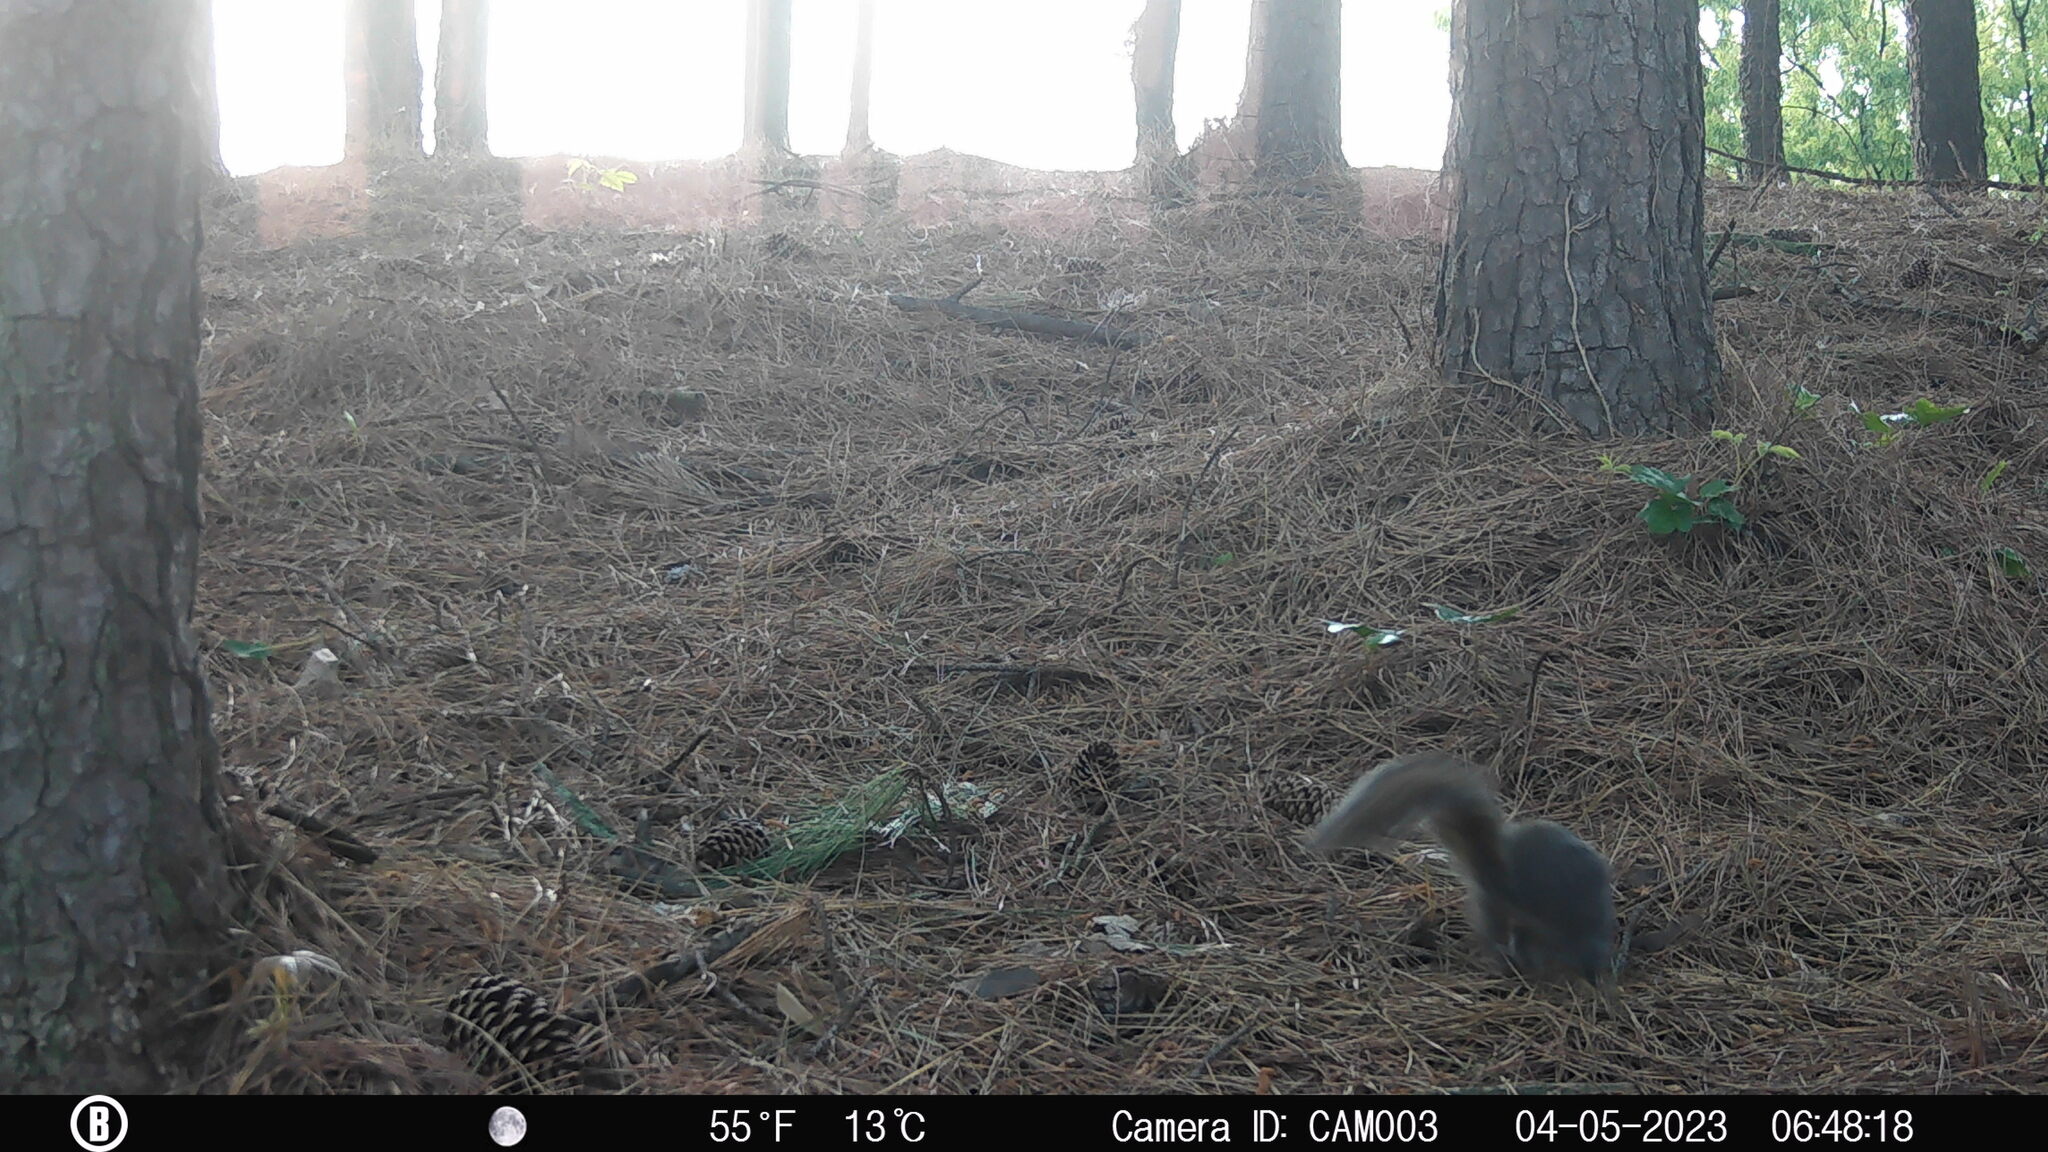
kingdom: Animalia
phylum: Chordata
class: Mammalia
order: Rodentia
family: Sciuridae
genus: Sciurus
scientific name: Sciurus carolinensis
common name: Eastern gray squirrel
